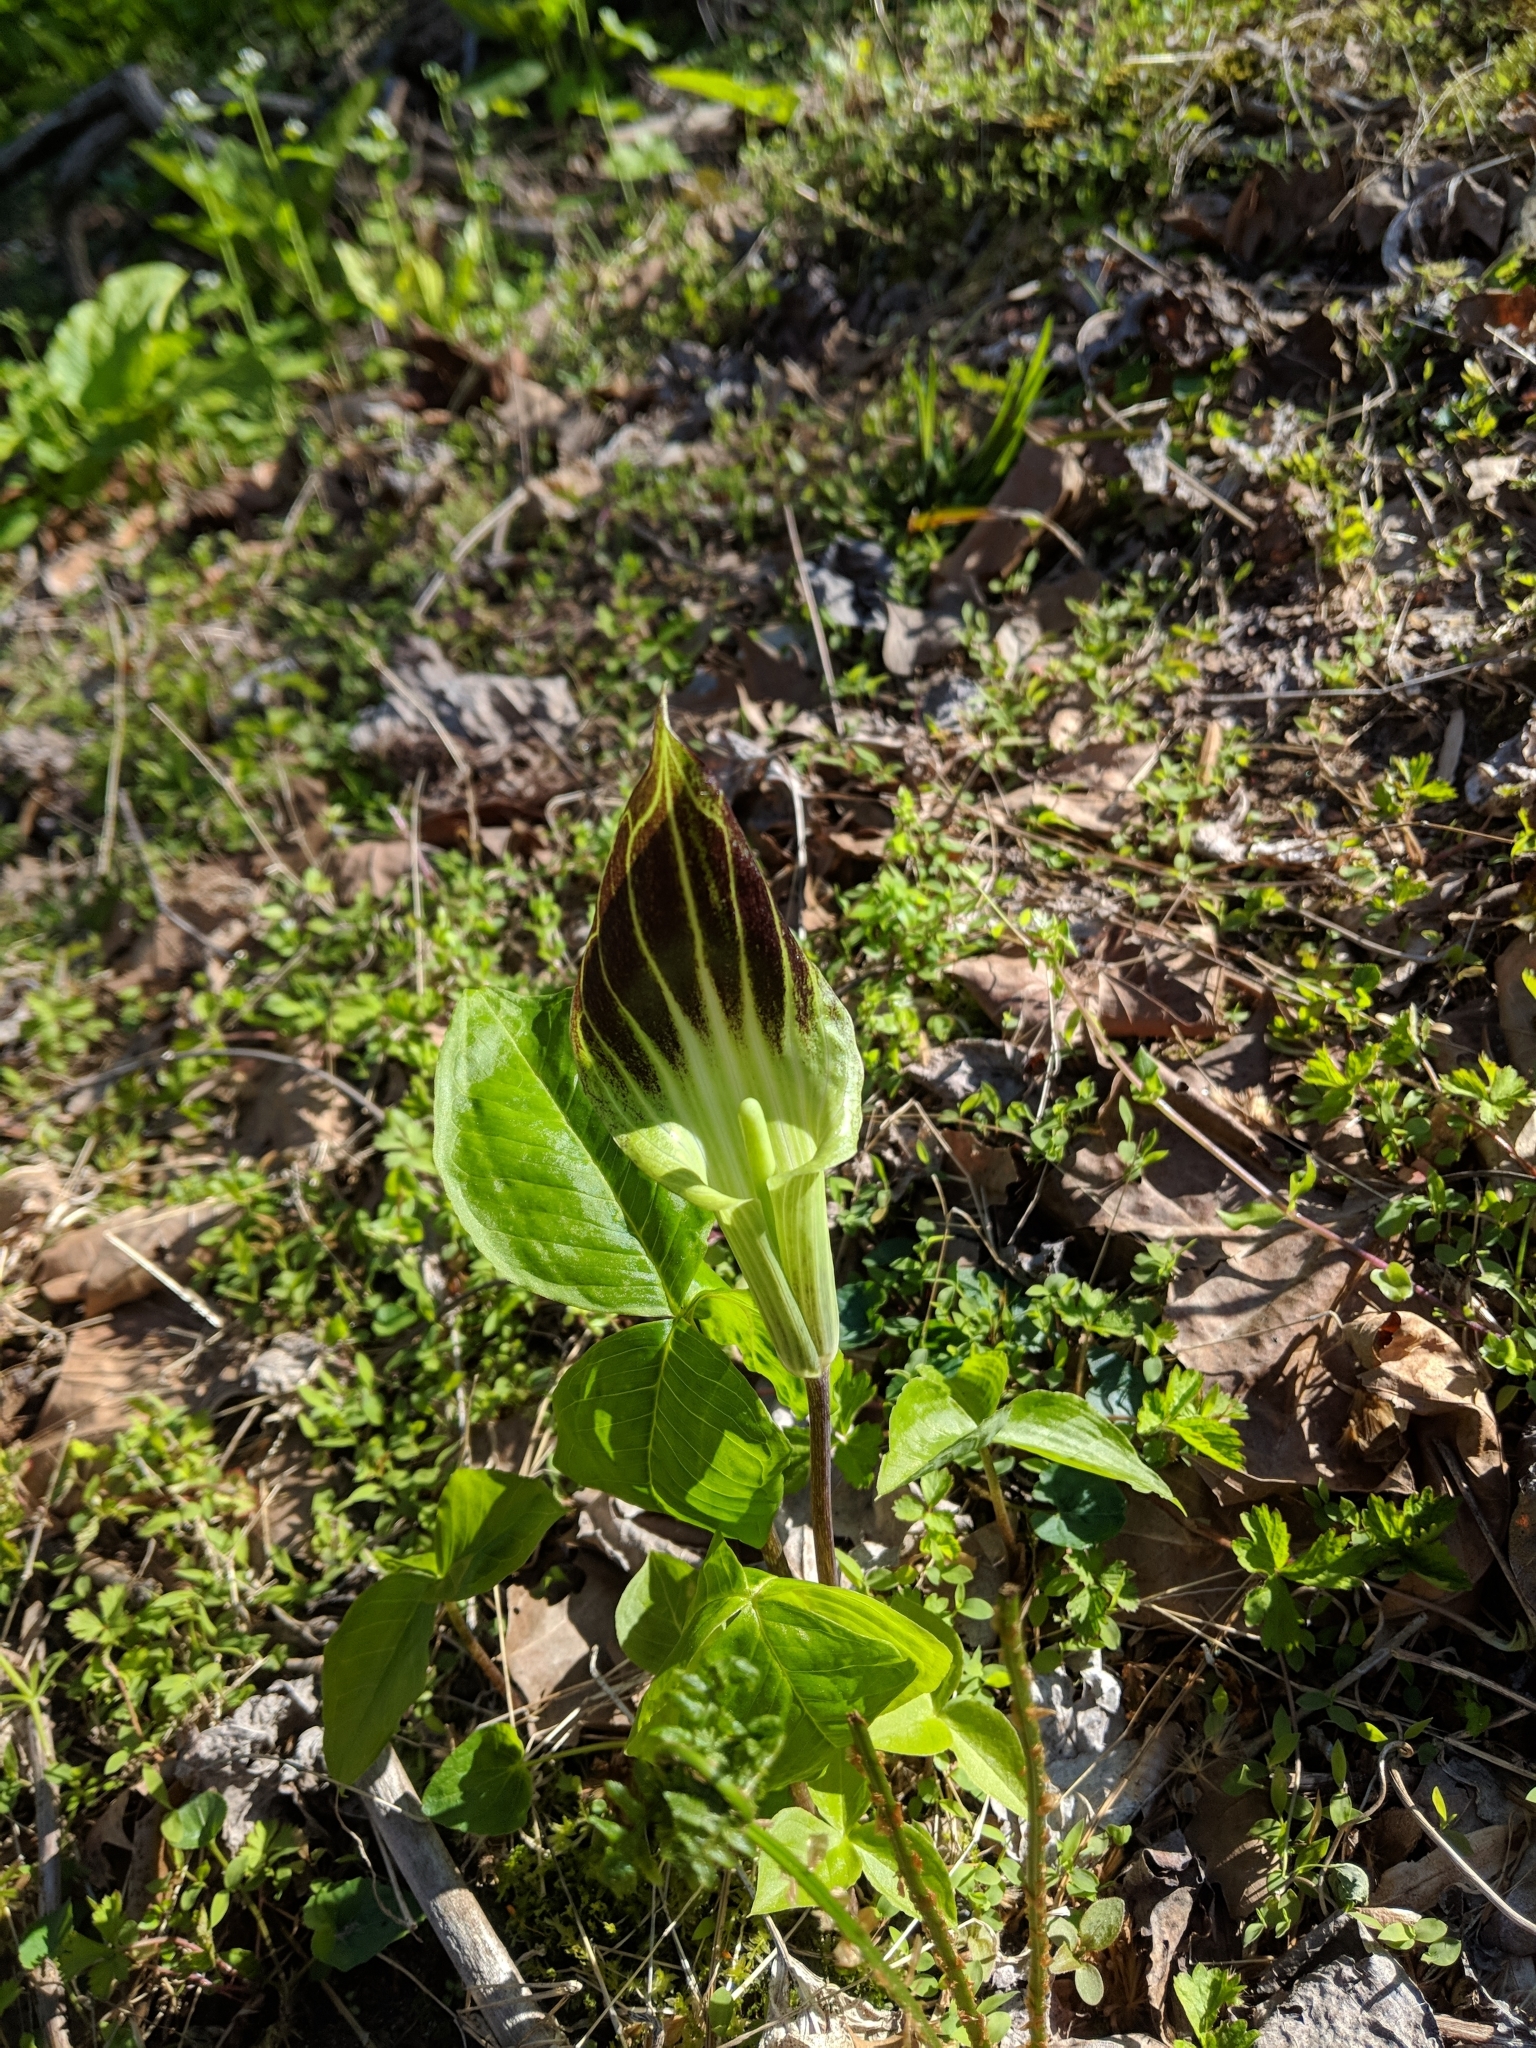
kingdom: Plantae
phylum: Tracheophyta
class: Liliopsida
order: Alismatales
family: Araceae
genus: Arisaema
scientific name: Arisaema triphyllum
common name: Jack-in-the-pulpit
